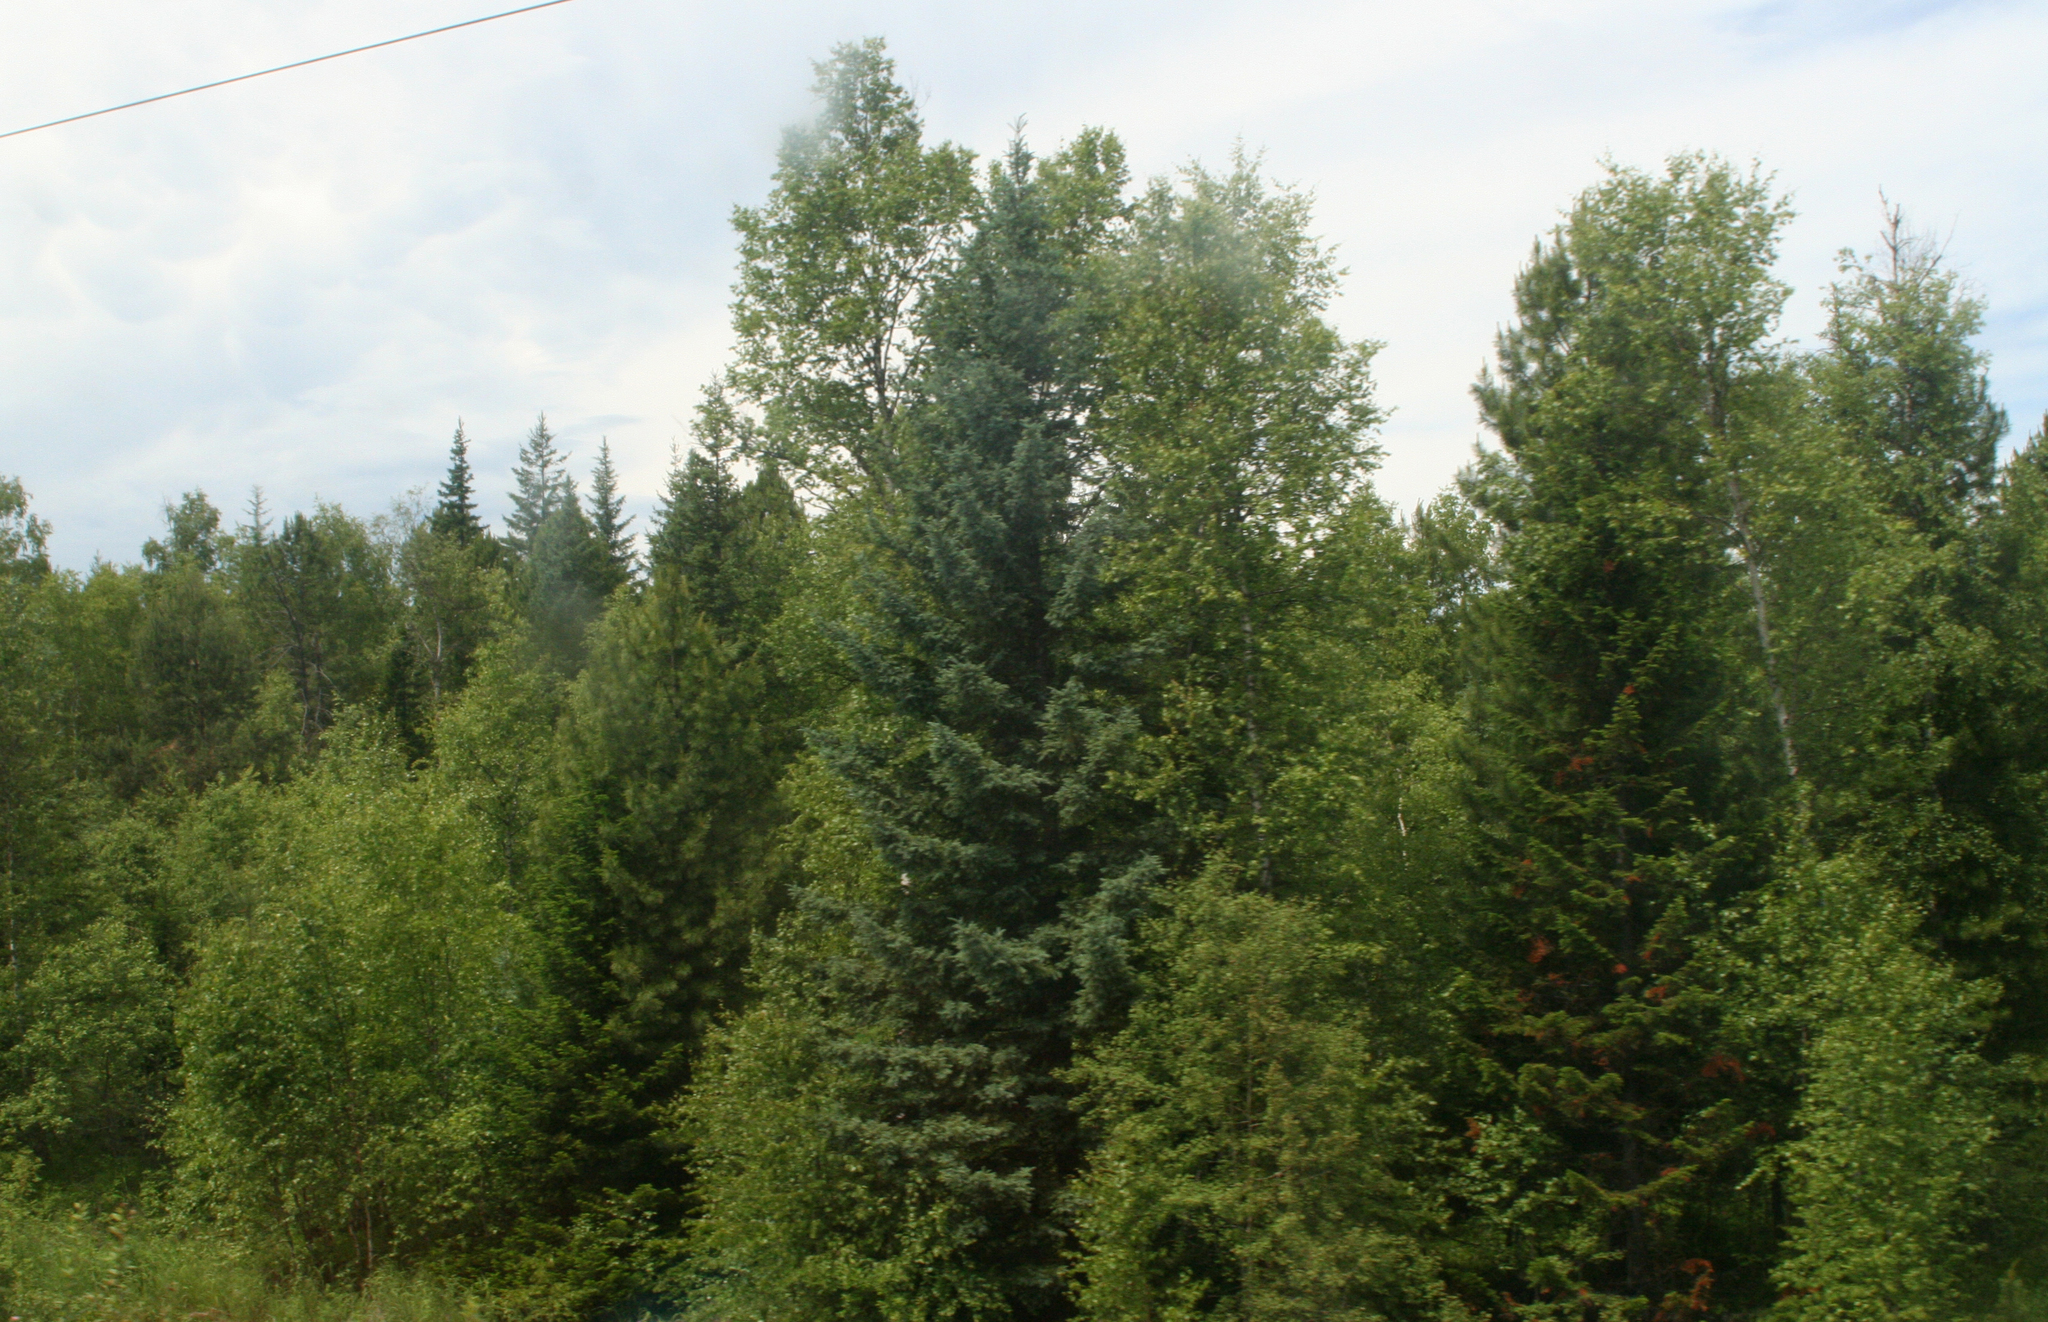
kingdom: Plantae
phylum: Tracheophyta
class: Pinopsida
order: Pinales
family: Pinaceae
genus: Picea
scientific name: Picea obovata
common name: Siberian spruce
